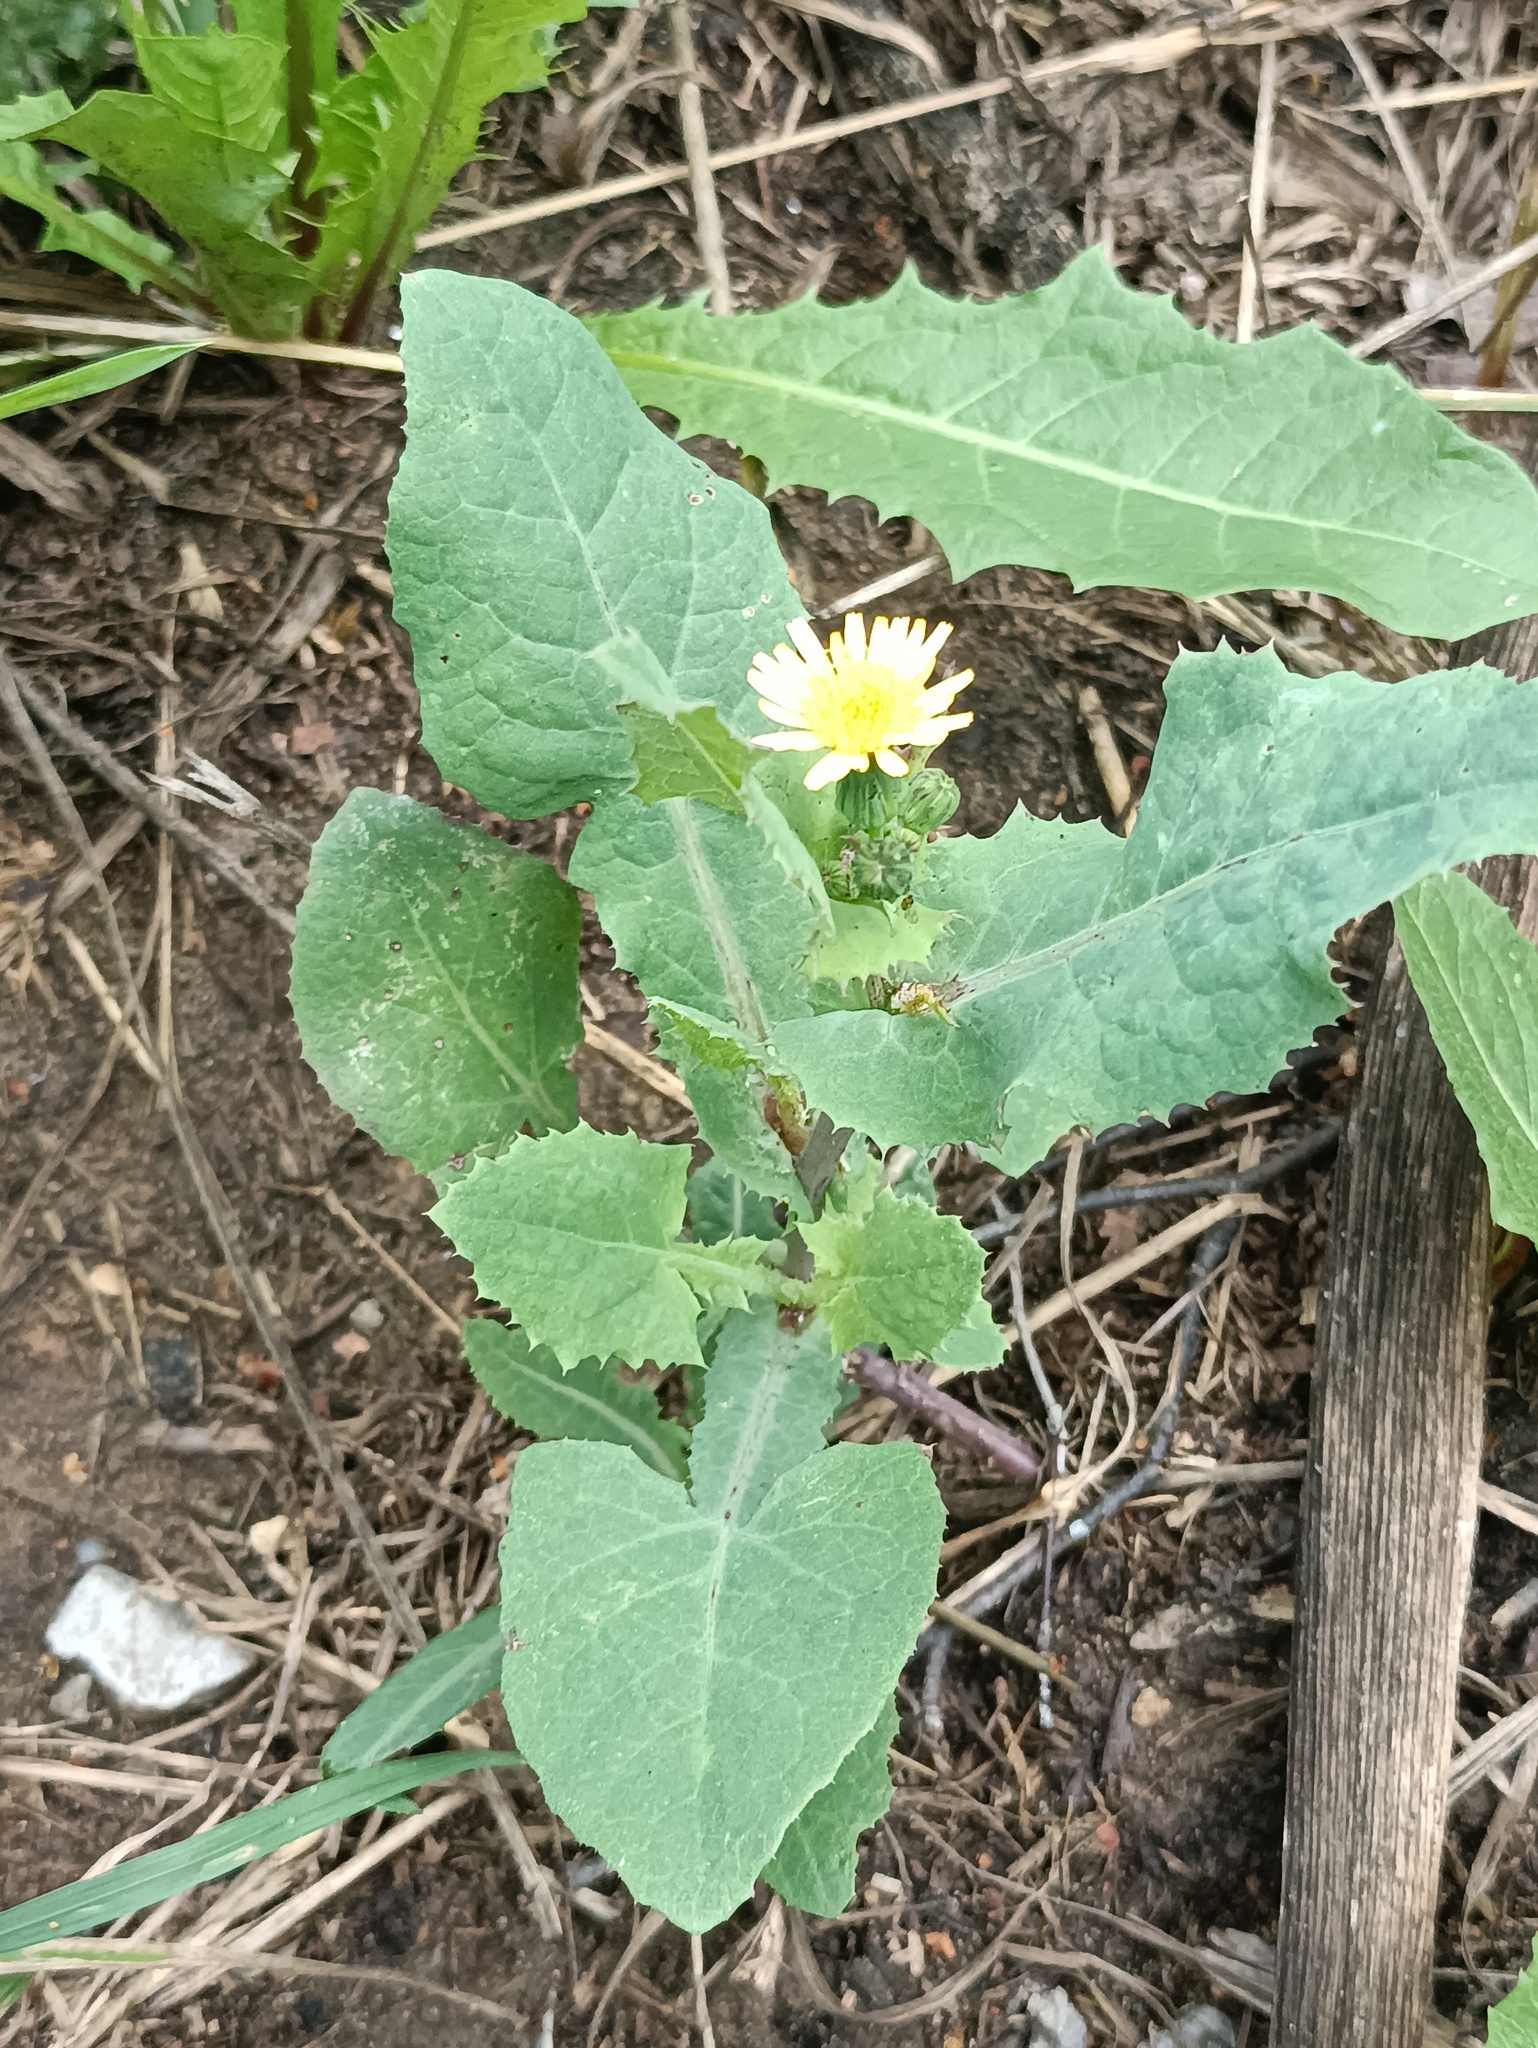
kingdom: Plantae
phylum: Tracheophyta
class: Magnoliopsida
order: Asterales
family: Asteraceae
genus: Sonchus
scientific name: Sonchus oleraceus
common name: Common sowthistle
